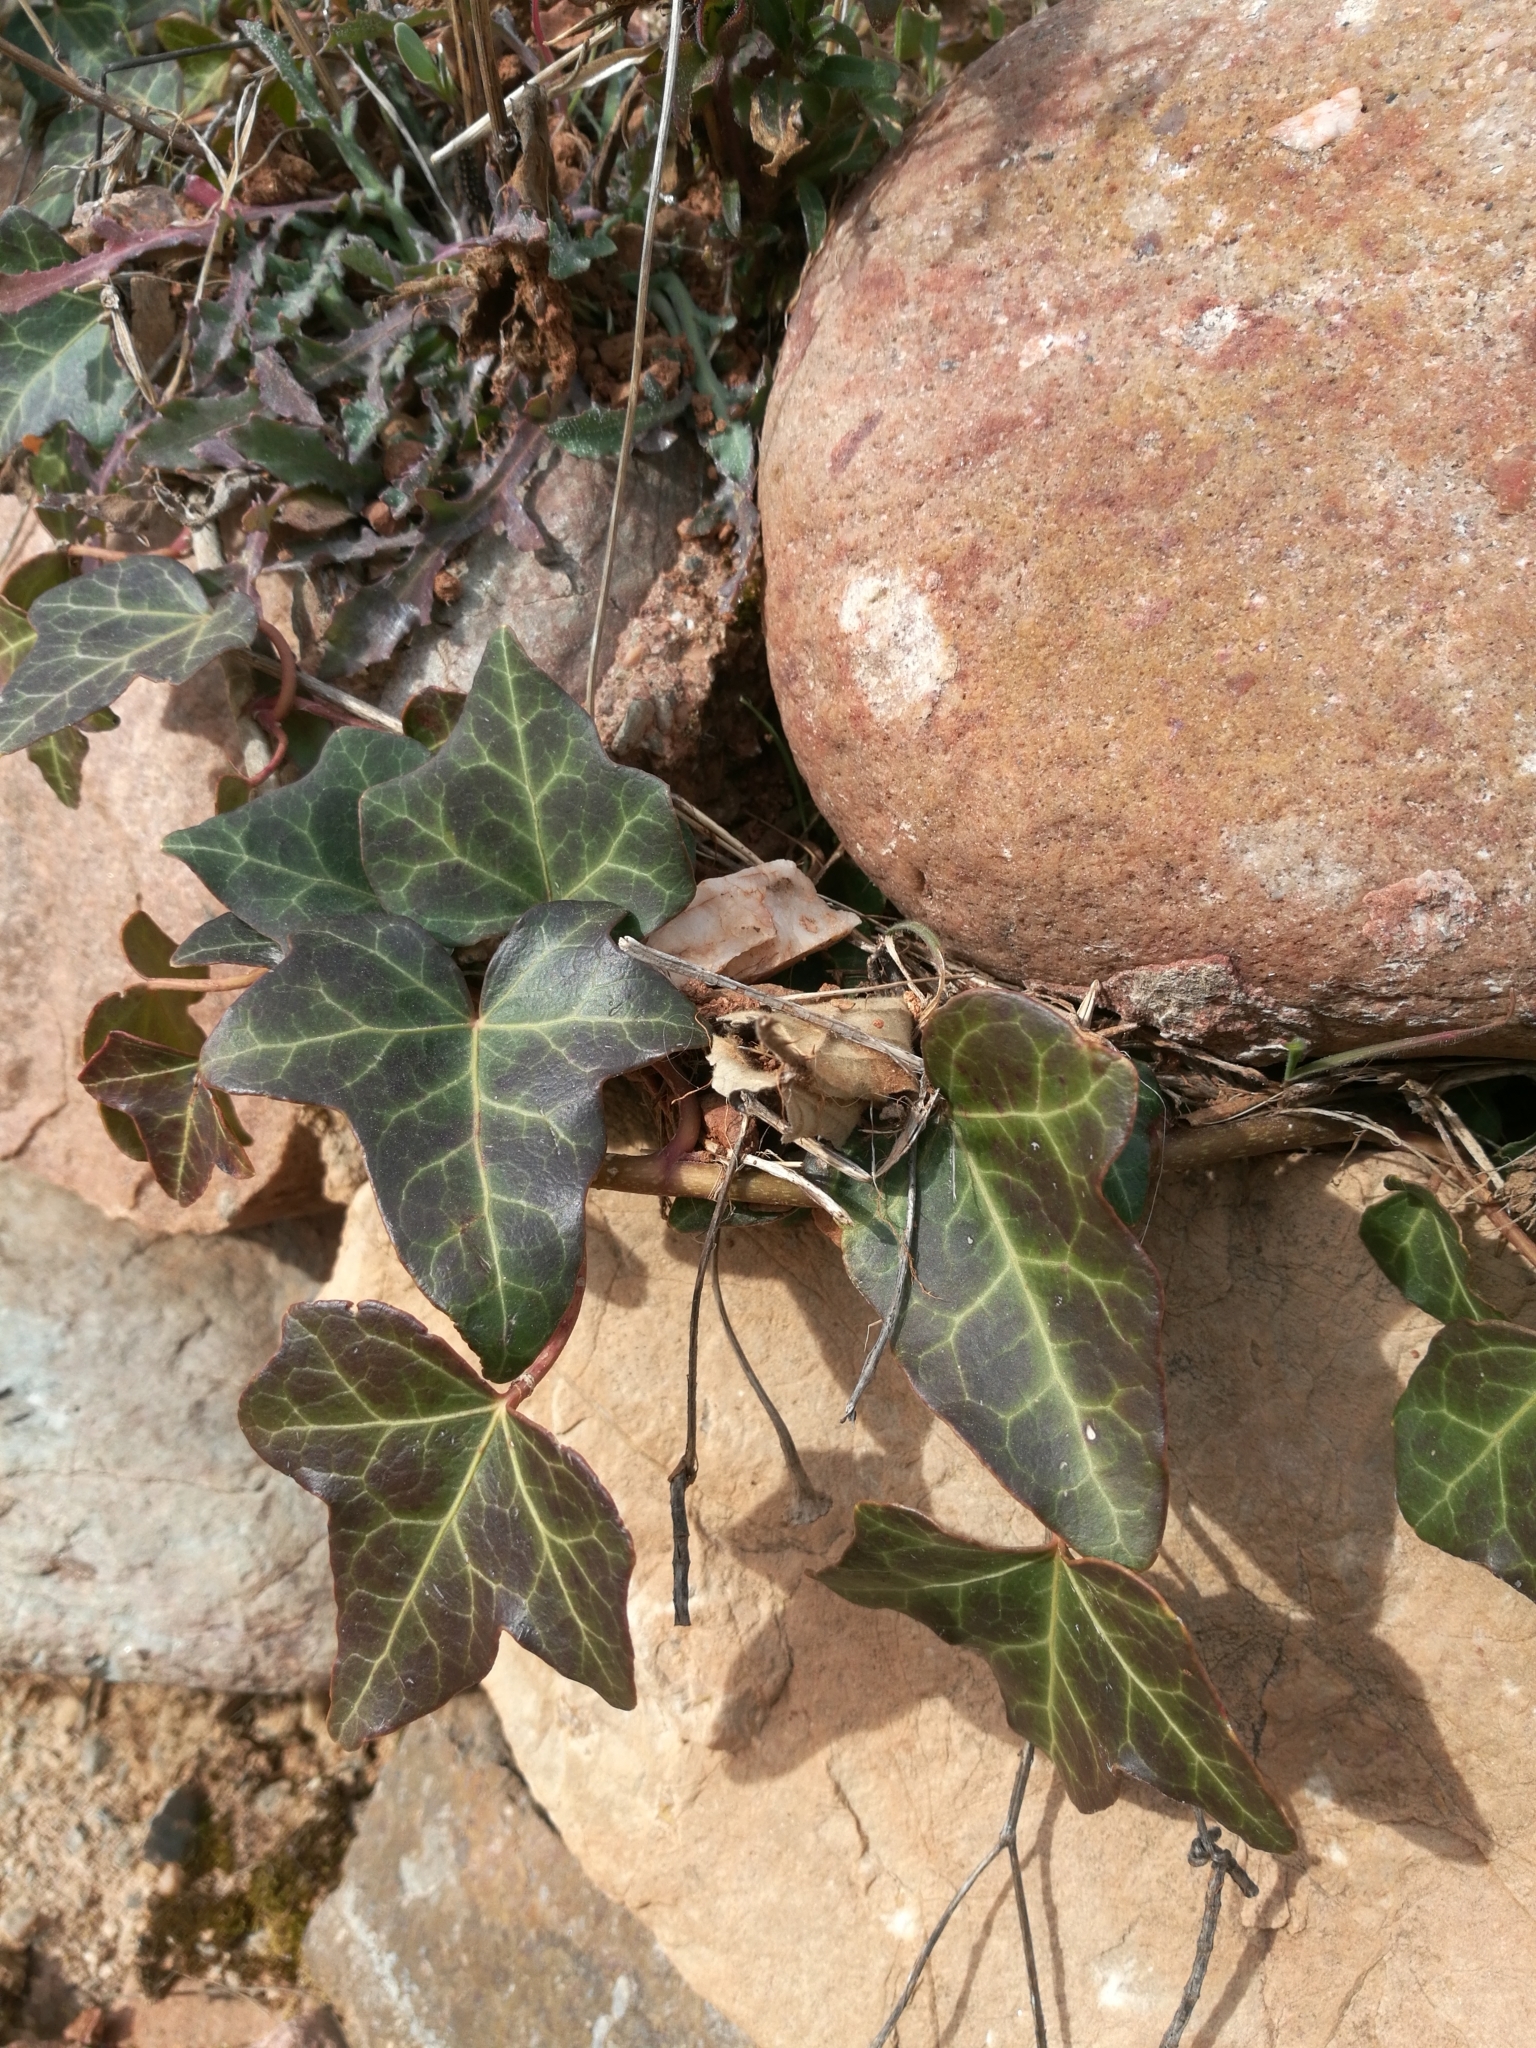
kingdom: Plantae
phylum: Tracheophyta
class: Magnoliopsida
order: Apiales
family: Araliaceae
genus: Hedera
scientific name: Hedera helix
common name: Ivy
